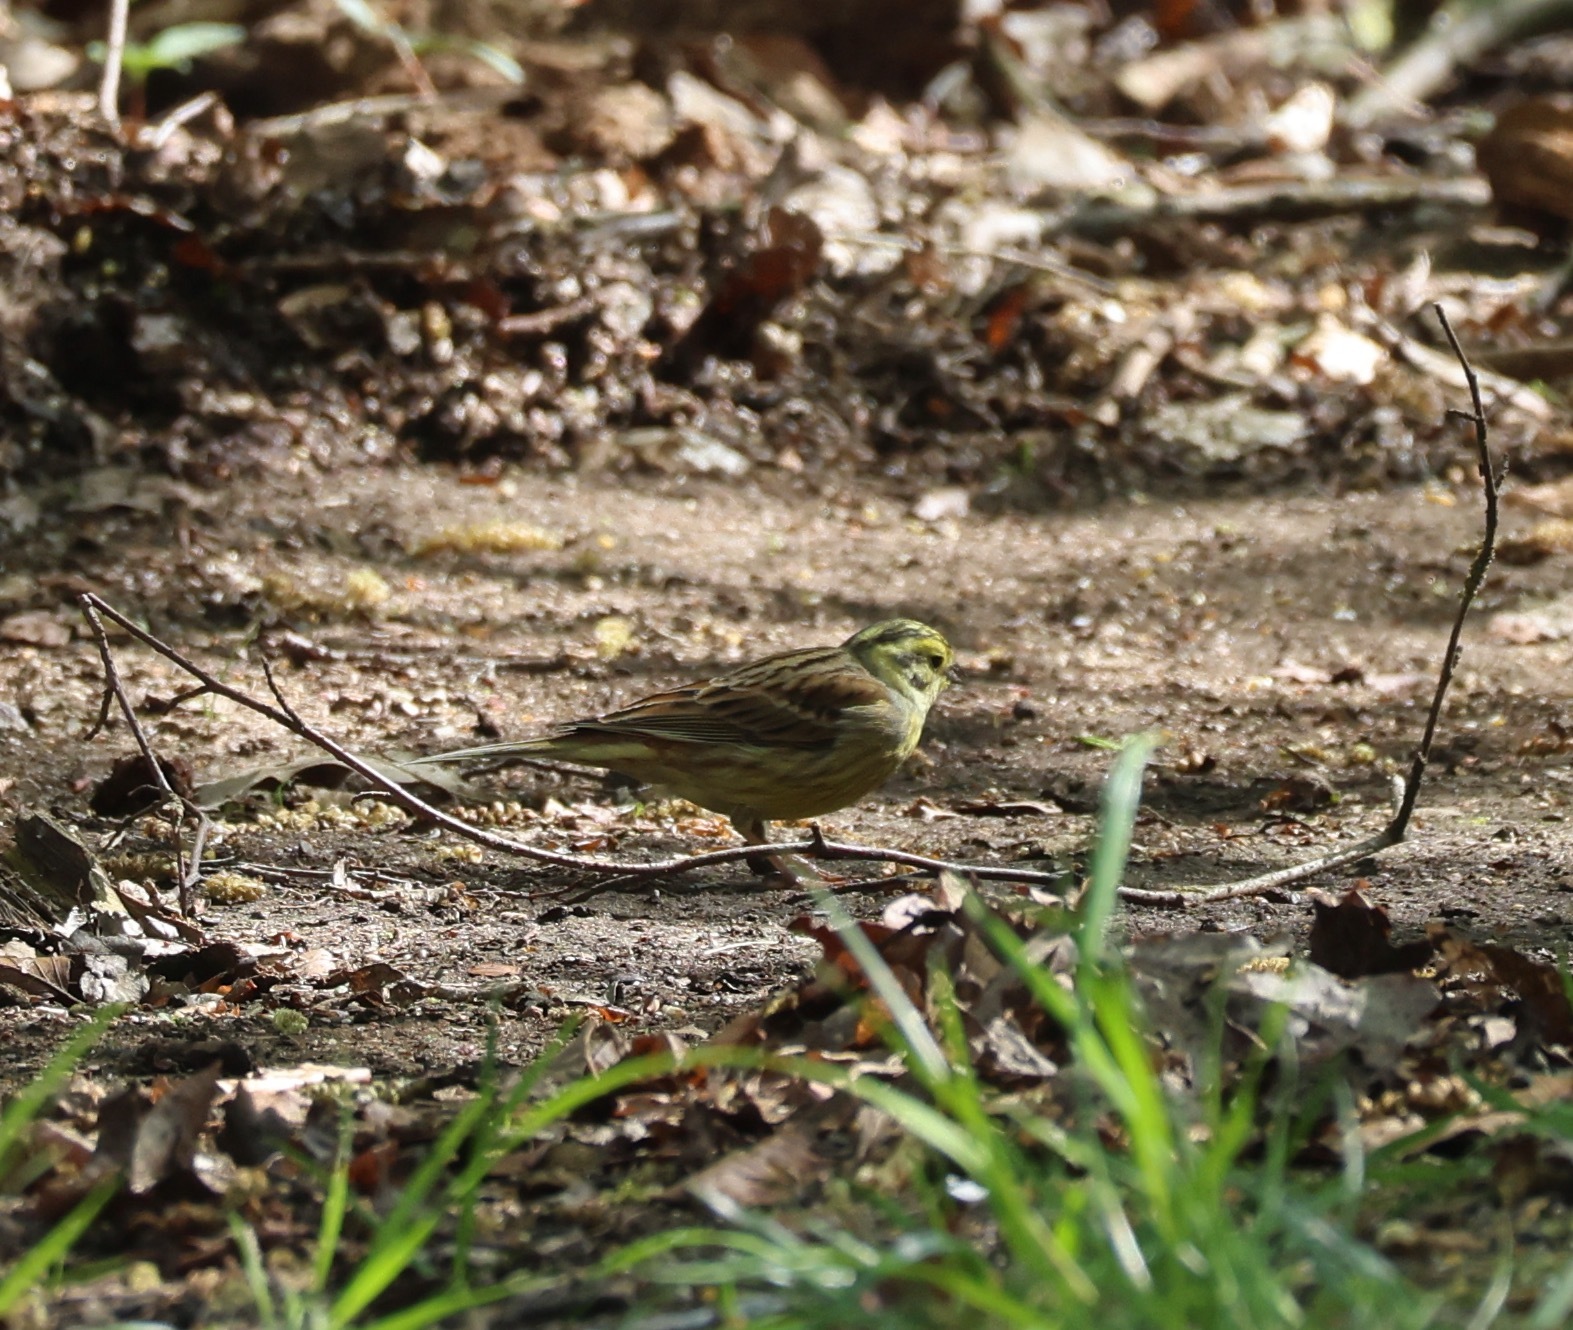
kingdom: Animalia
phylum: Chordata
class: Aves
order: Passeriformes
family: Emberizidae
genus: Emberiza
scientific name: Emberiza citrinella
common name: Yellowhammer
